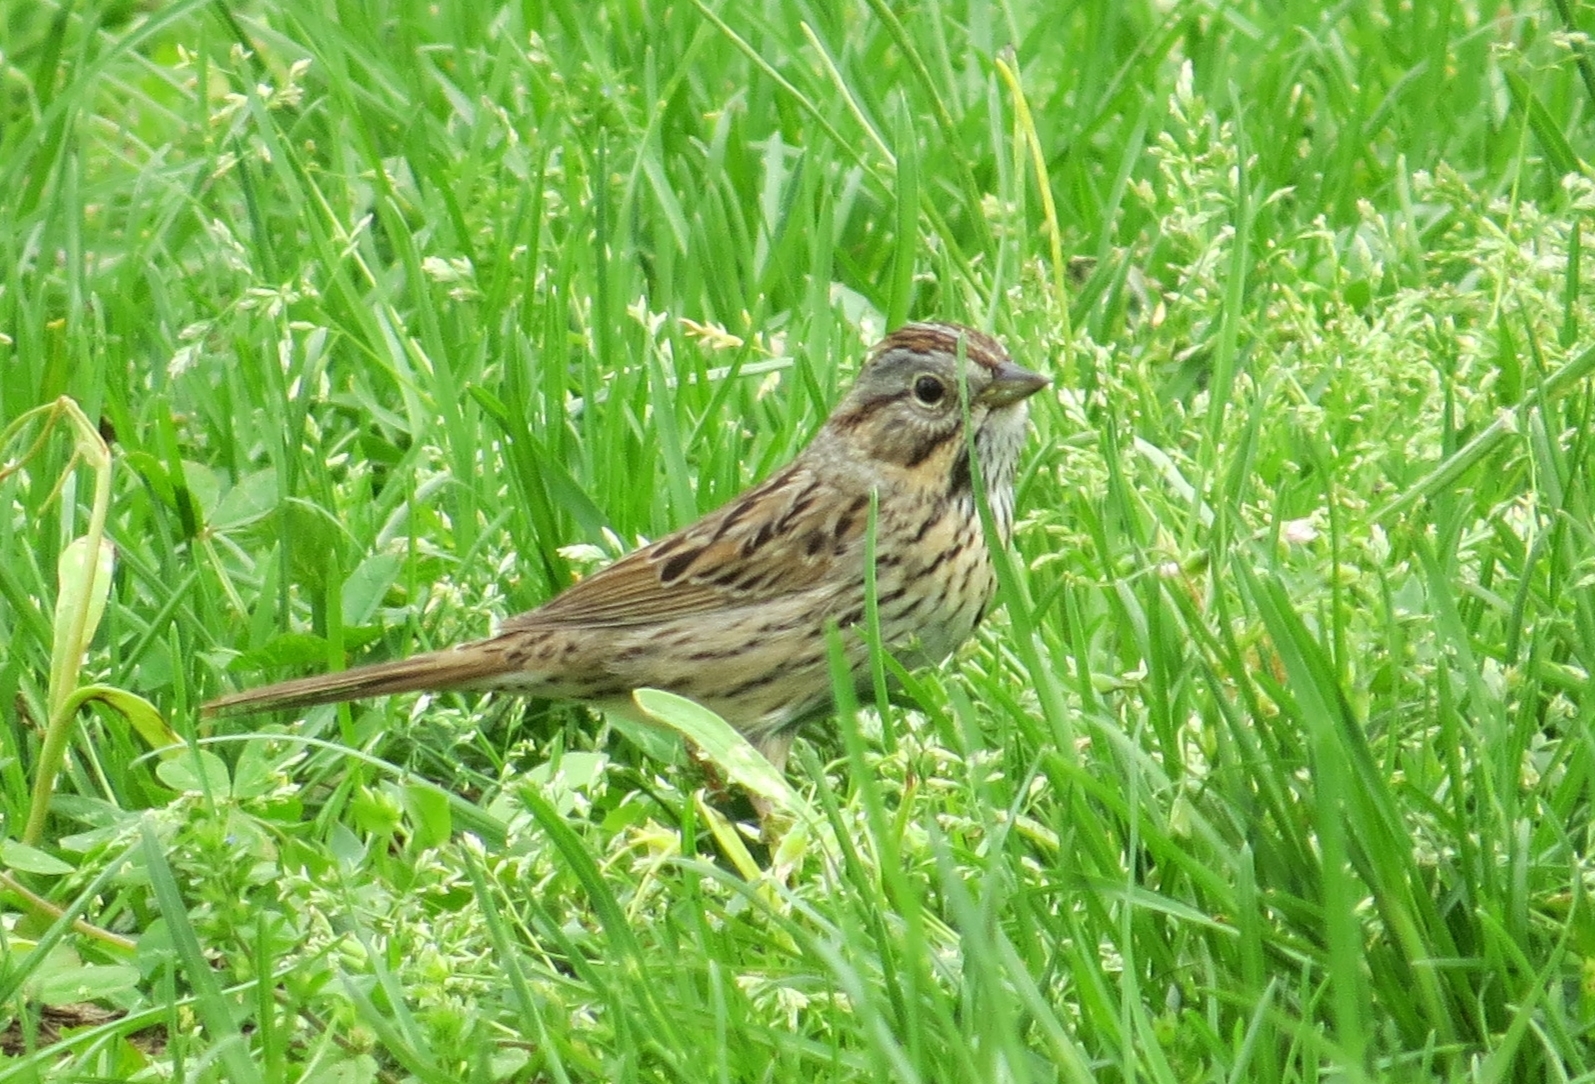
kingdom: Animalia
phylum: Chordata
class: Aves
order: Passeriformes
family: Passerellidae
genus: Melospiza
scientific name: Melospiza lincolnii
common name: Lincoln's sparrow
